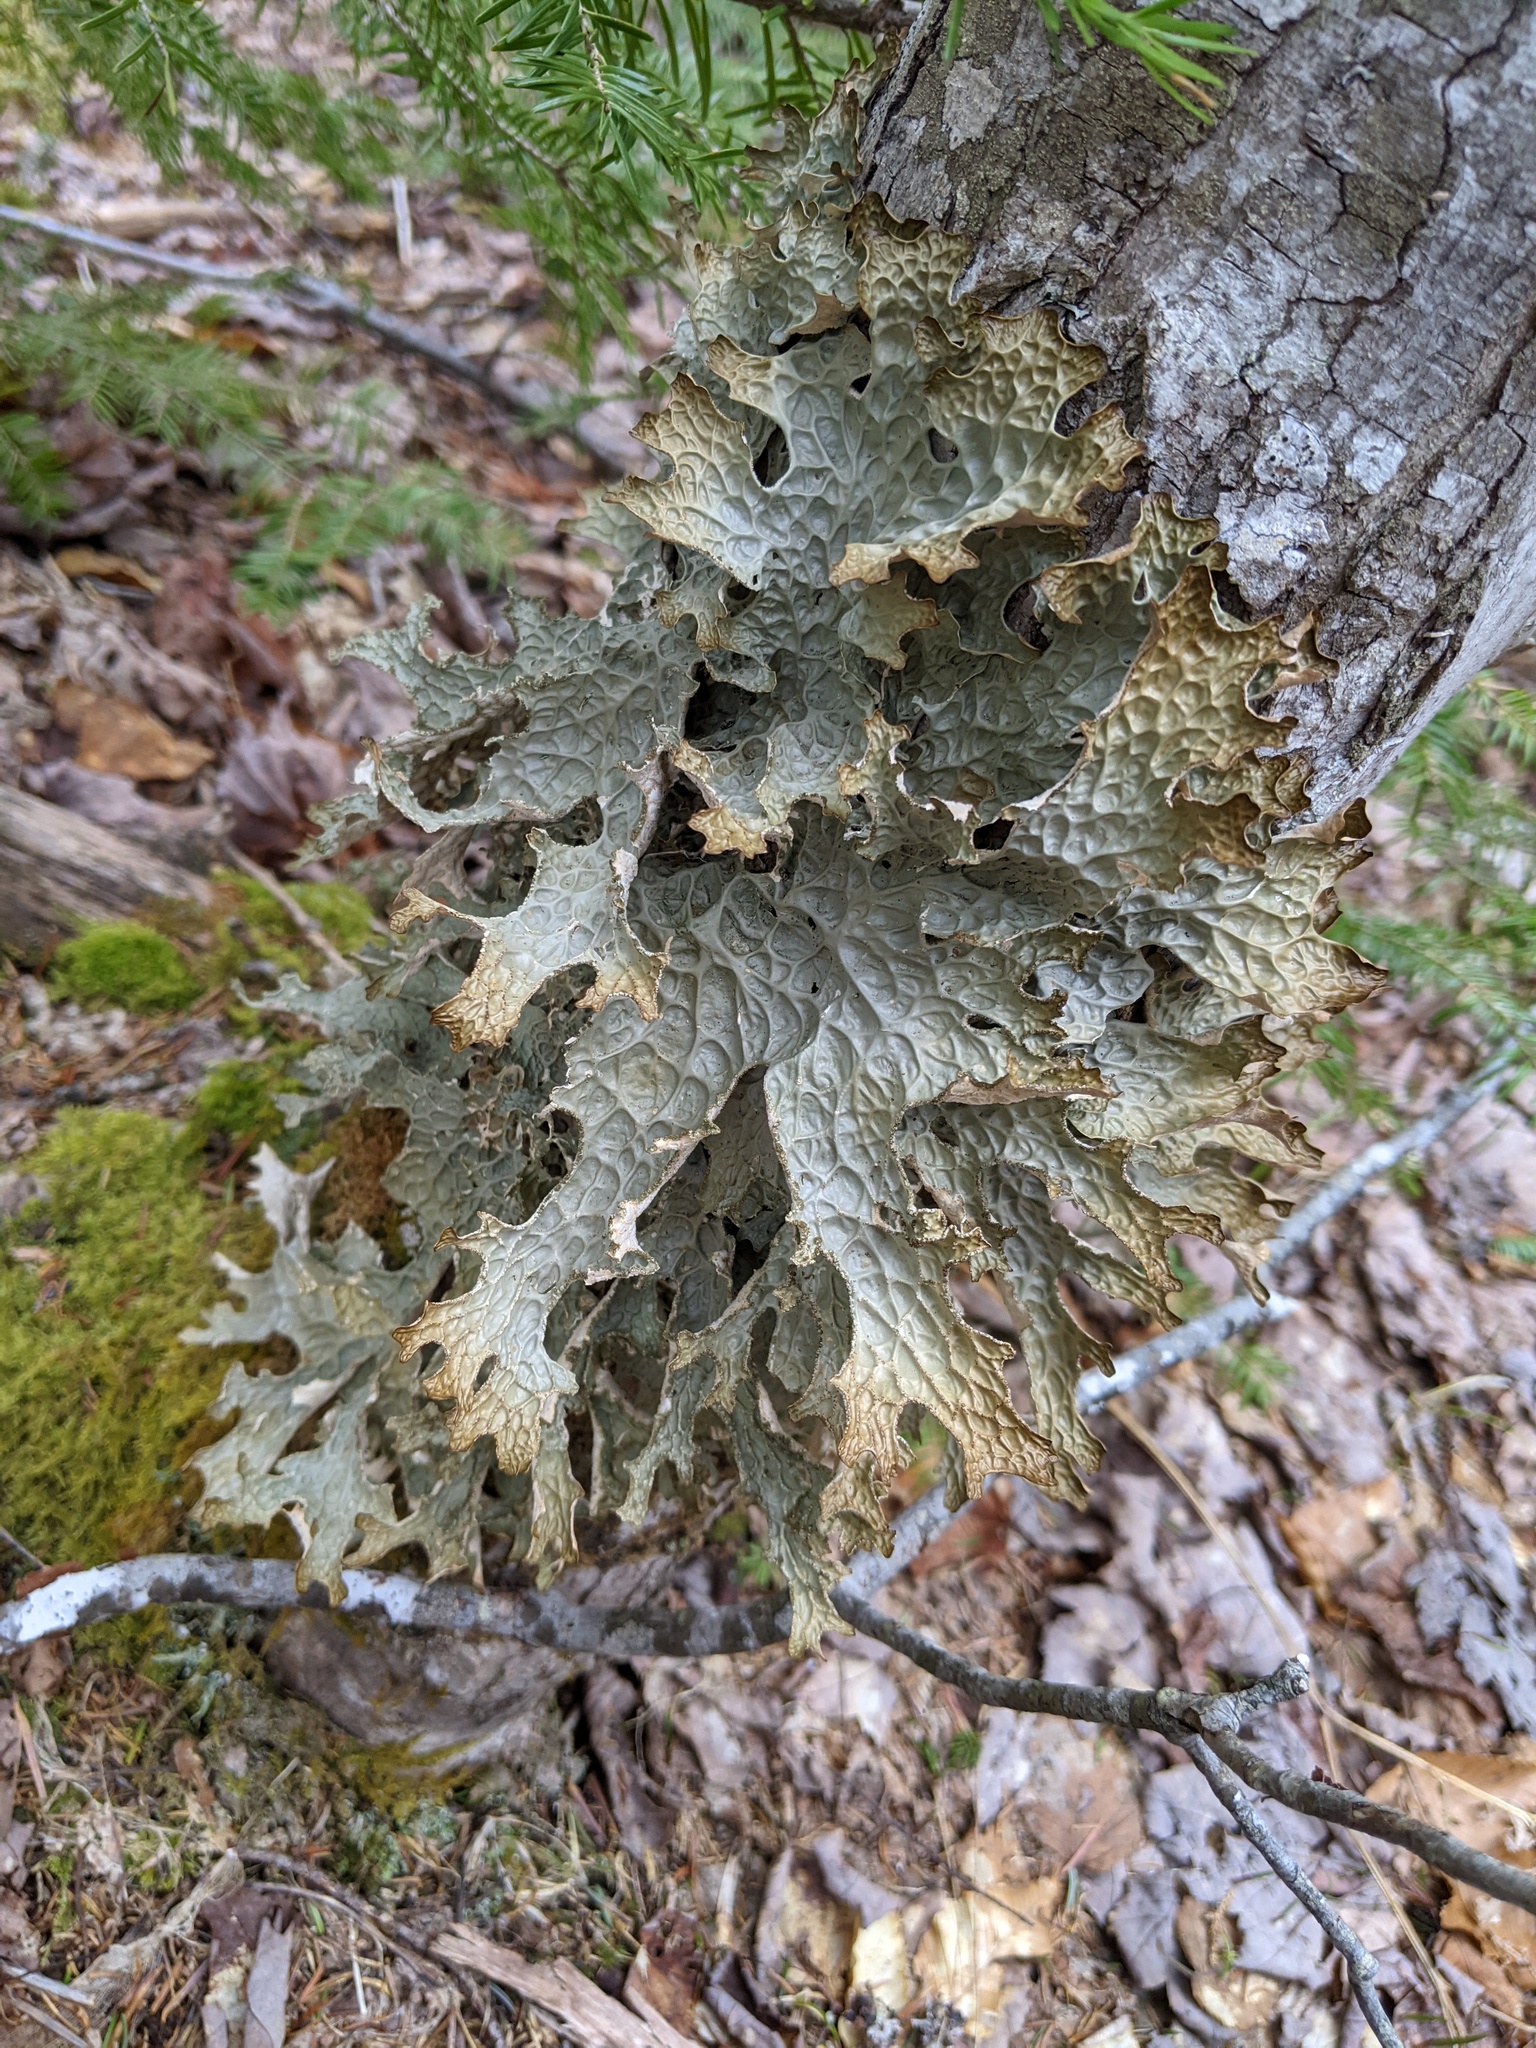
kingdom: Fungi
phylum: Ascomycota
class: Lecanoromycetes
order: Peltigerales
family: Lobariaceae
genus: Lobaria
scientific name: Lobaria pulmonaria
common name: Lungwort
